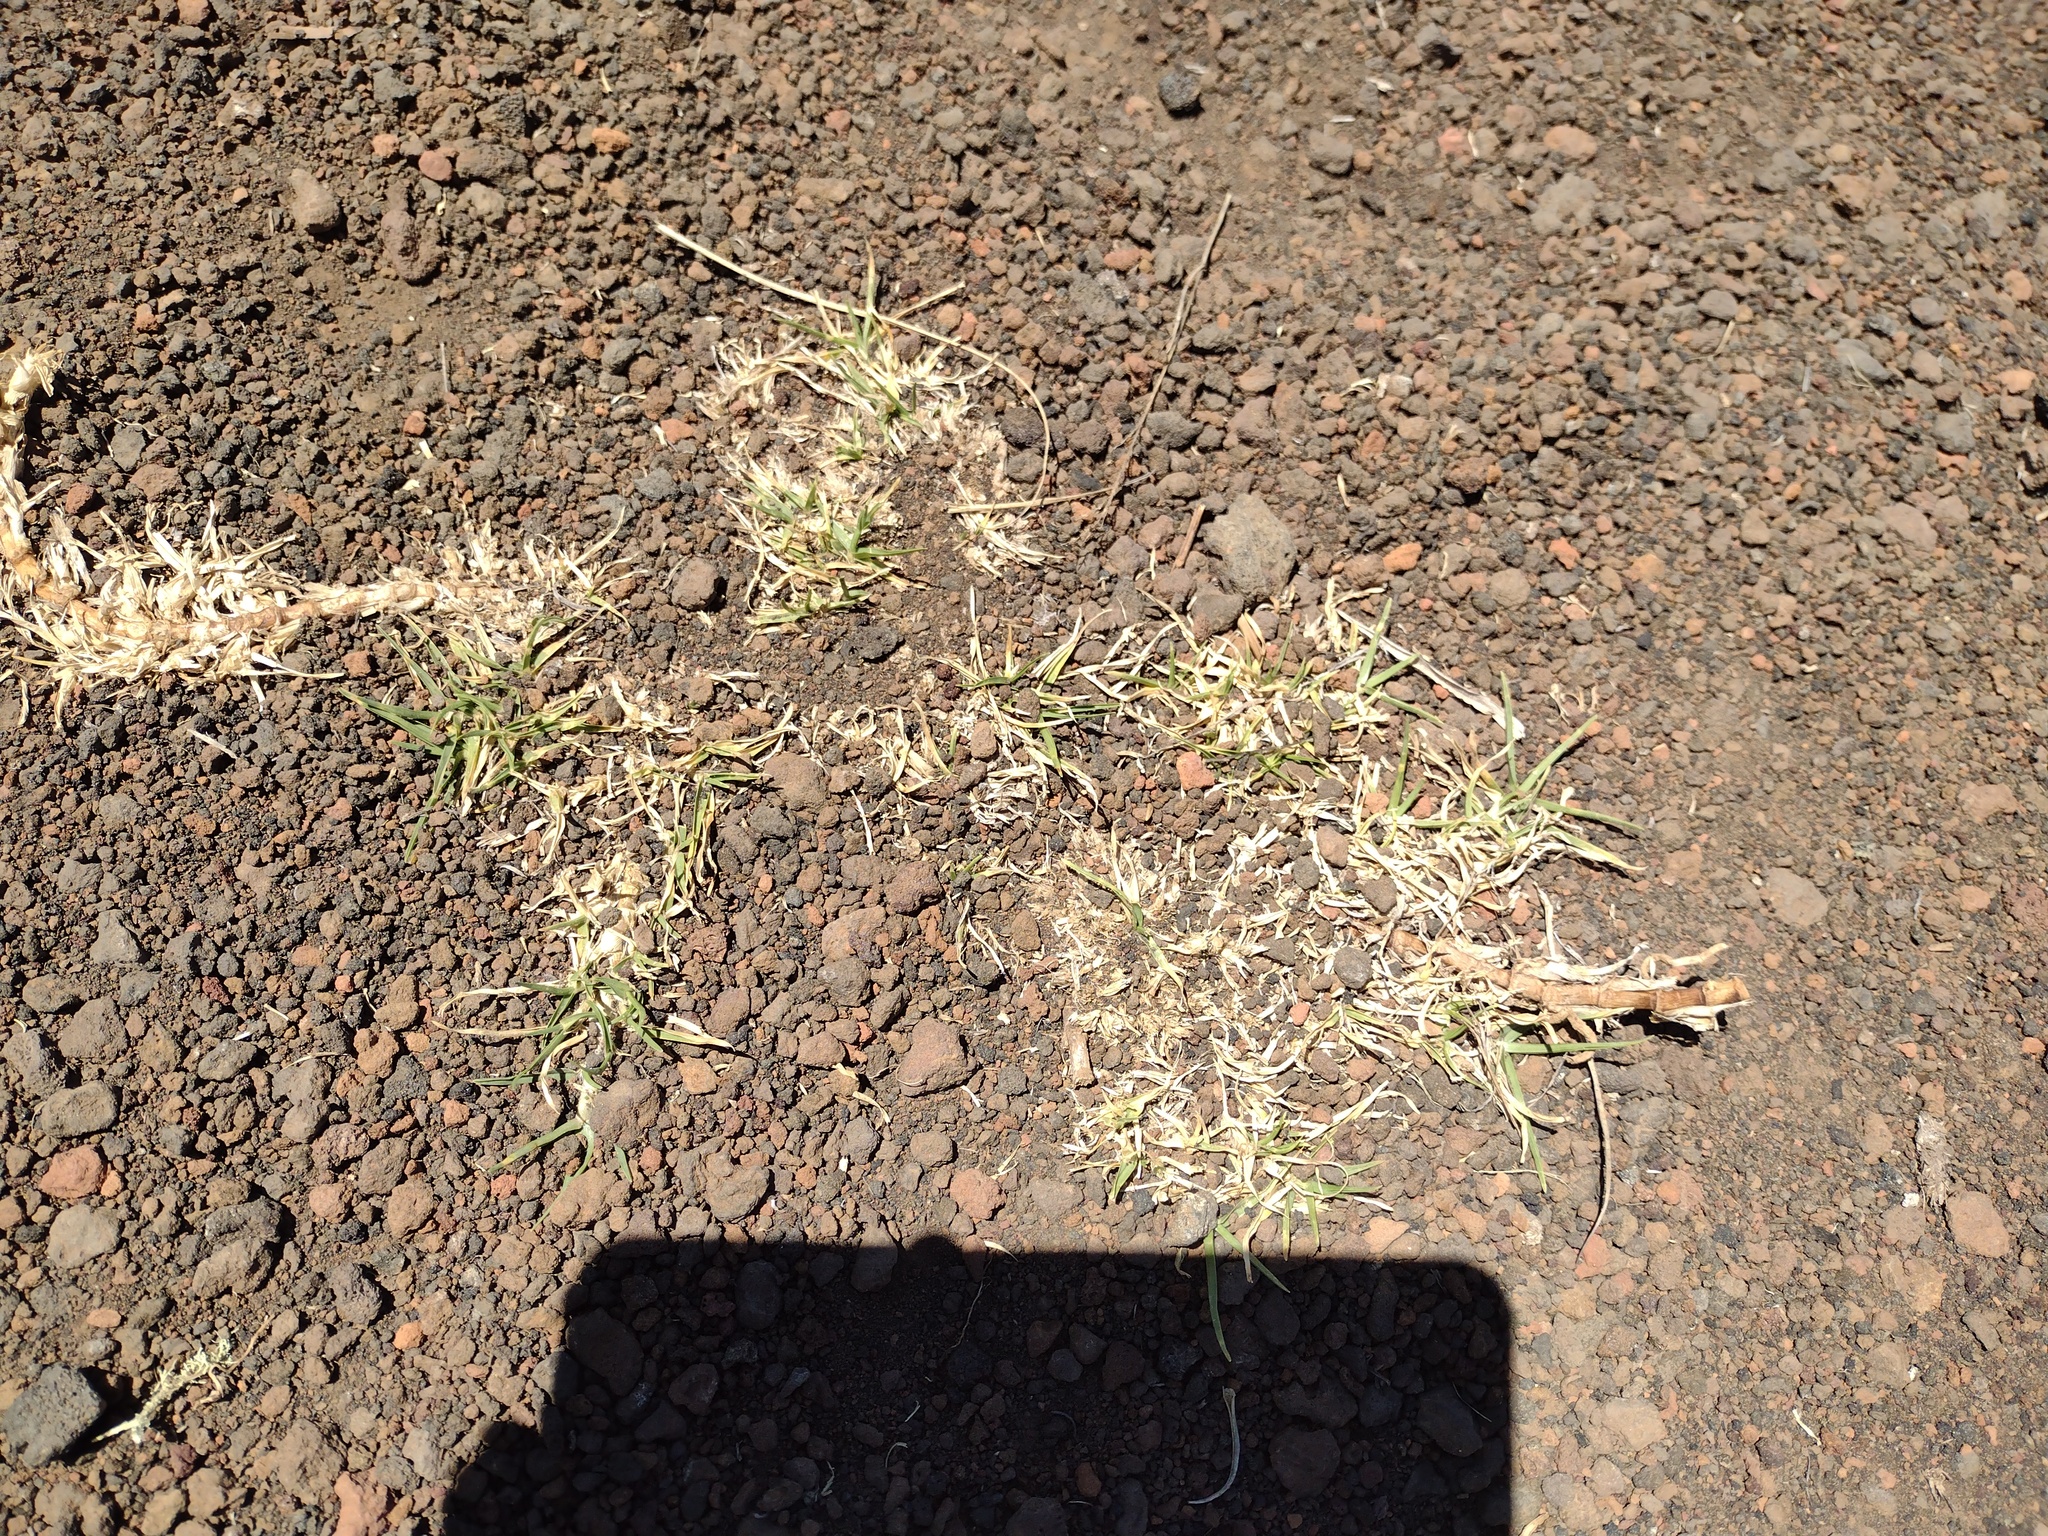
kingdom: Plantae
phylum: Tracheophyta
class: Liliopsida
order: Poales
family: Poaceae
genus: Cenchrus
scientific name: Cenchrus clandestinus
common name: Kikuyugrass
